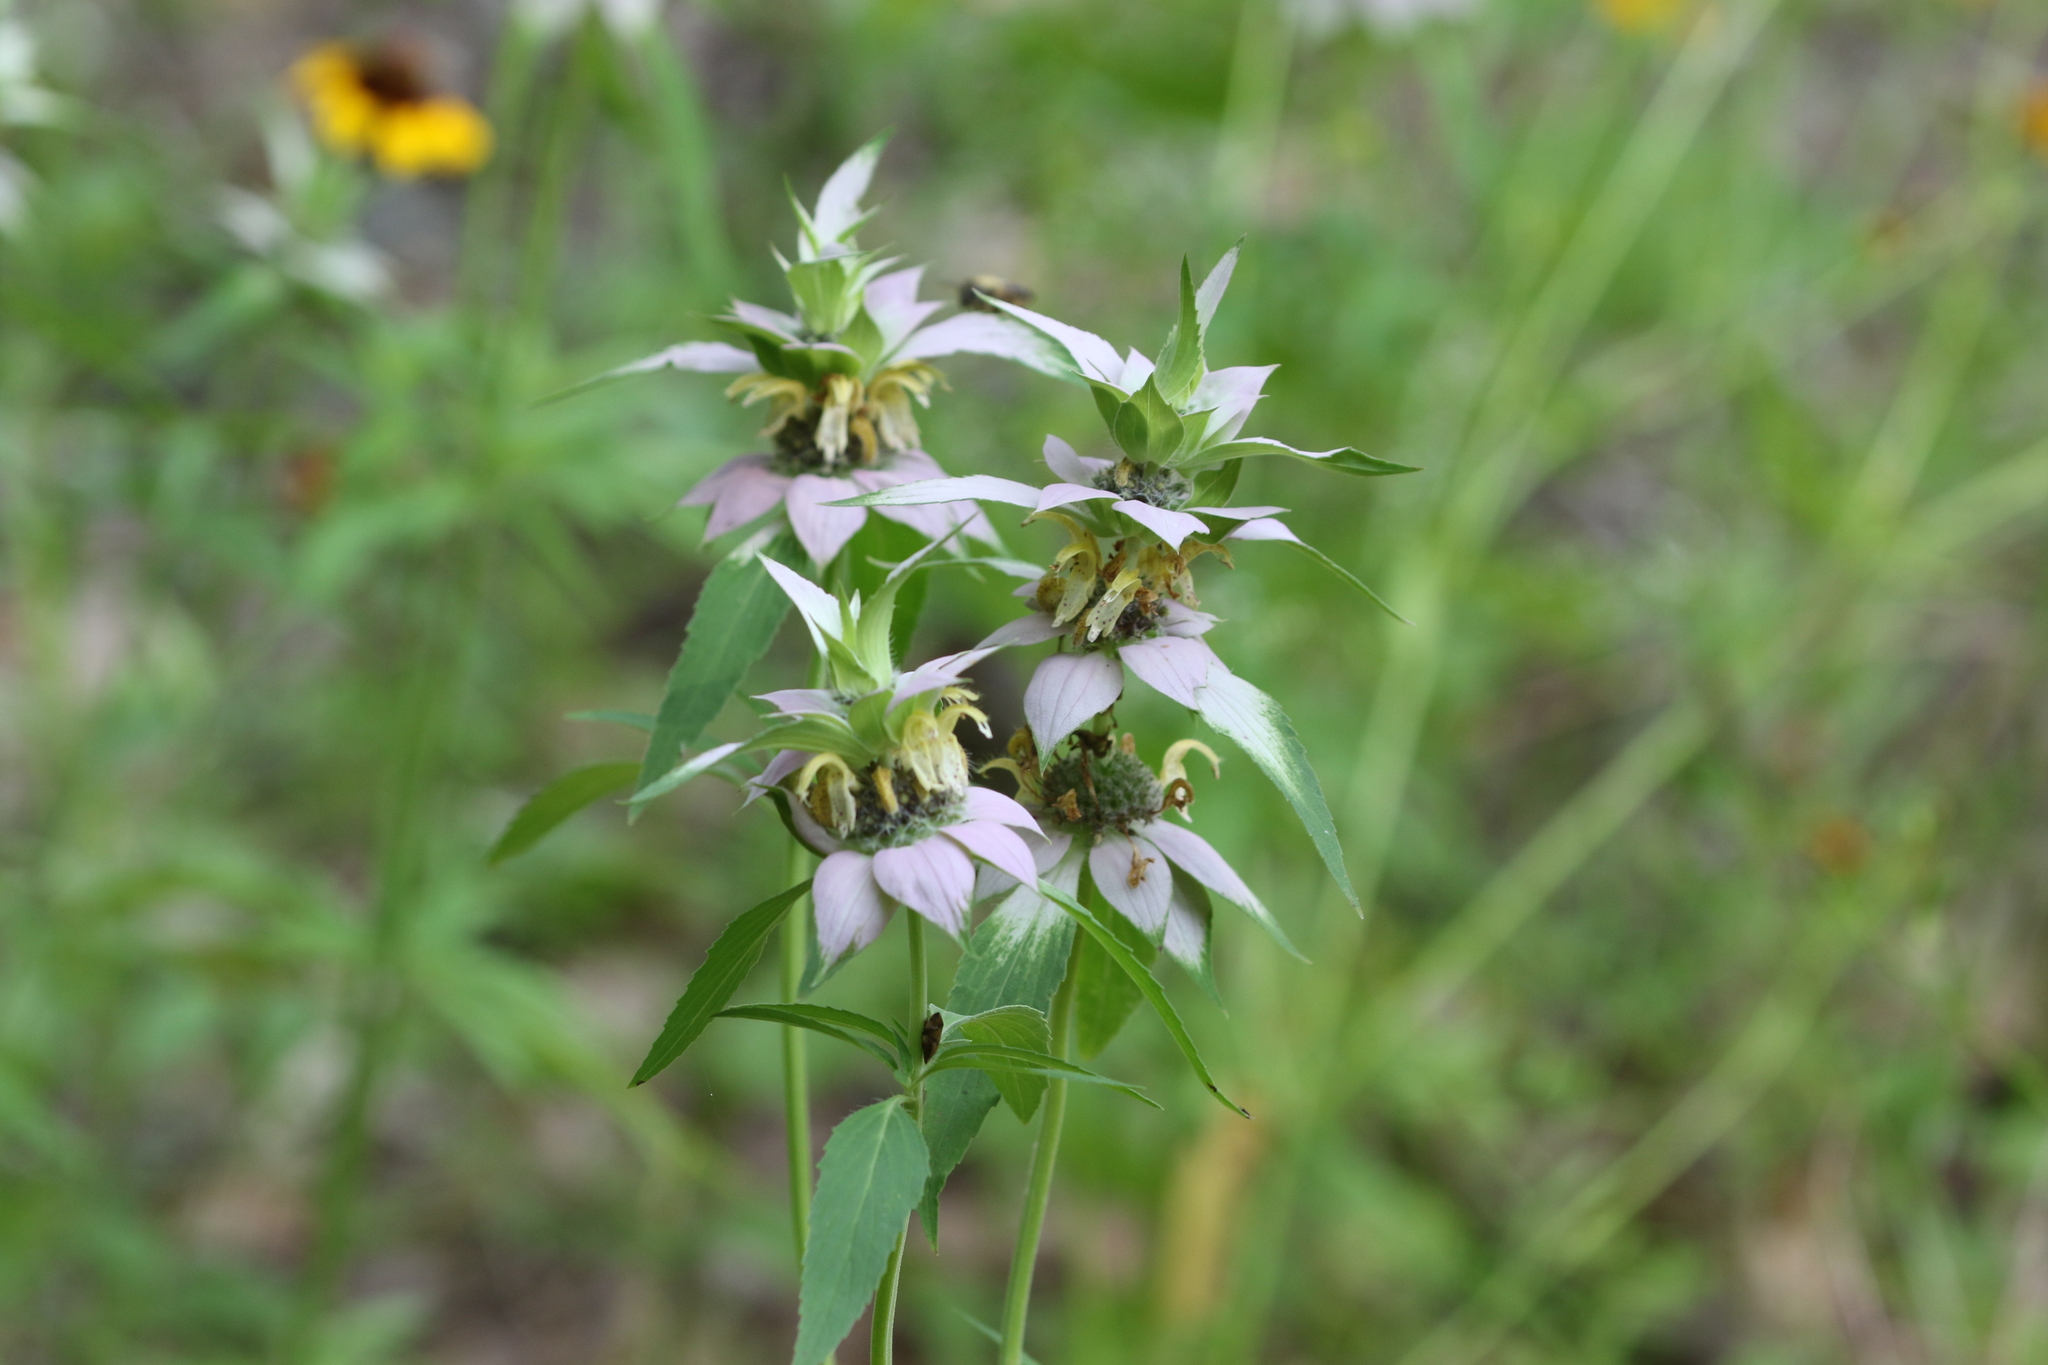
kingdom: Plantae
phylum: Tracheophyta
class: Magnoliopsida
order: Lamiales
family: Lamiaceae
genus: Monarda
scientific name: Monarda punctata
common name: Dotted monarda
